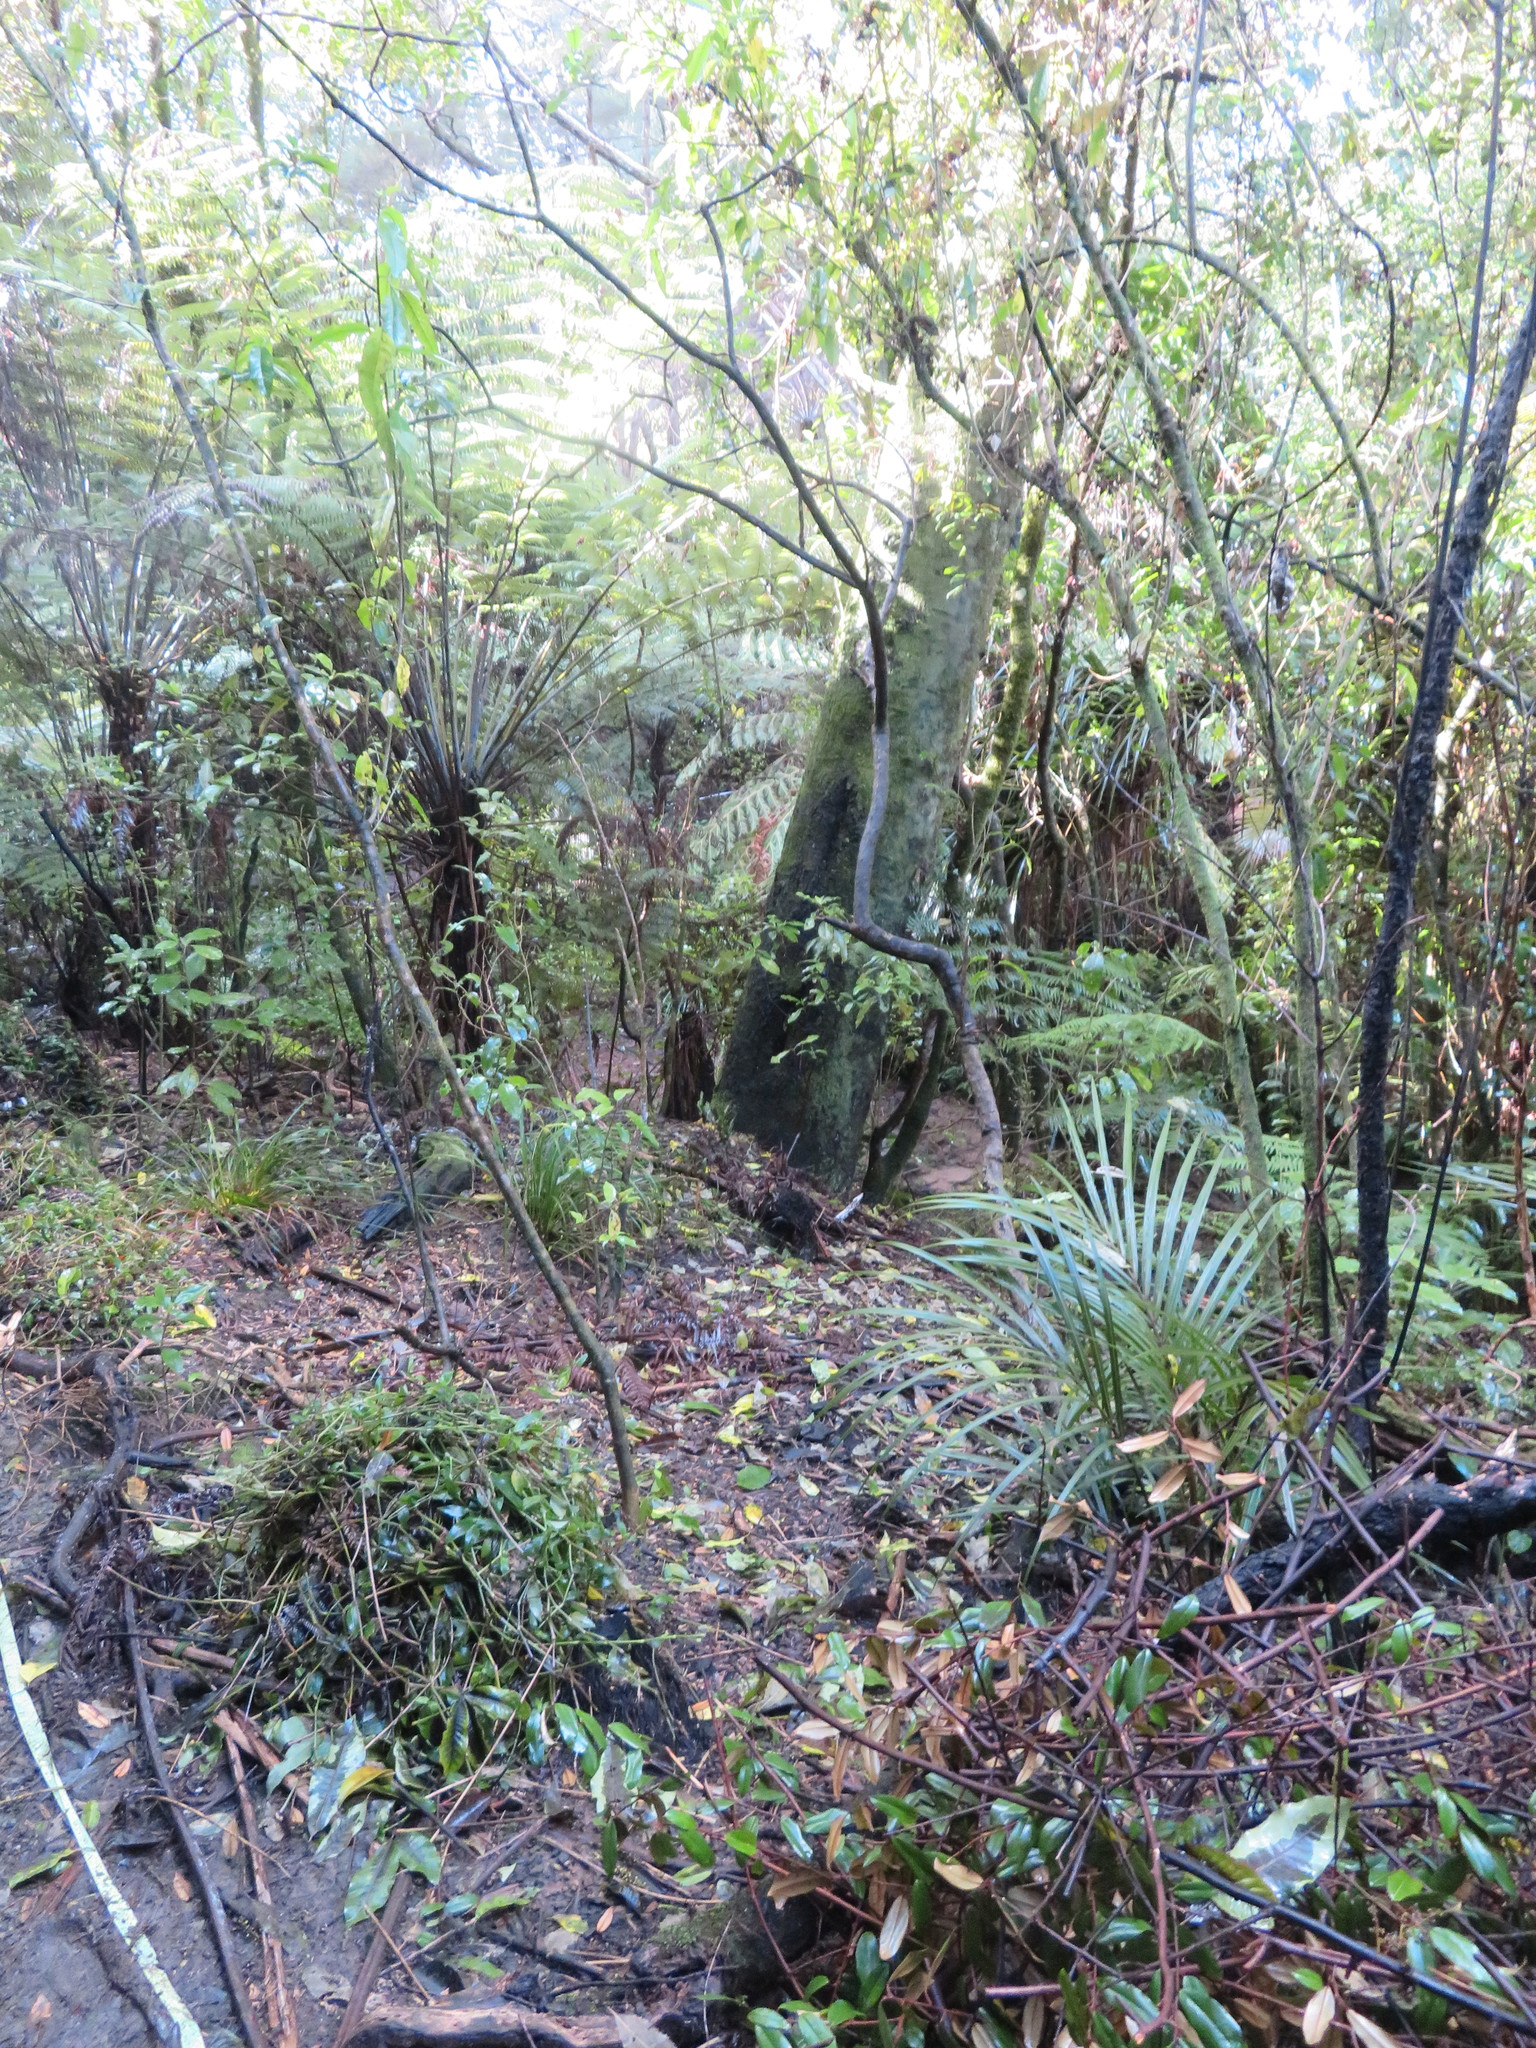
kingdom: Plantae
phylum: Tracheophyta
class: Pinopsida
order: Pinales
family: Phyllocladaceae
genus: Phyllocladus
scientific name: Phyllocladus trichomanoides
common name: Celery pine
